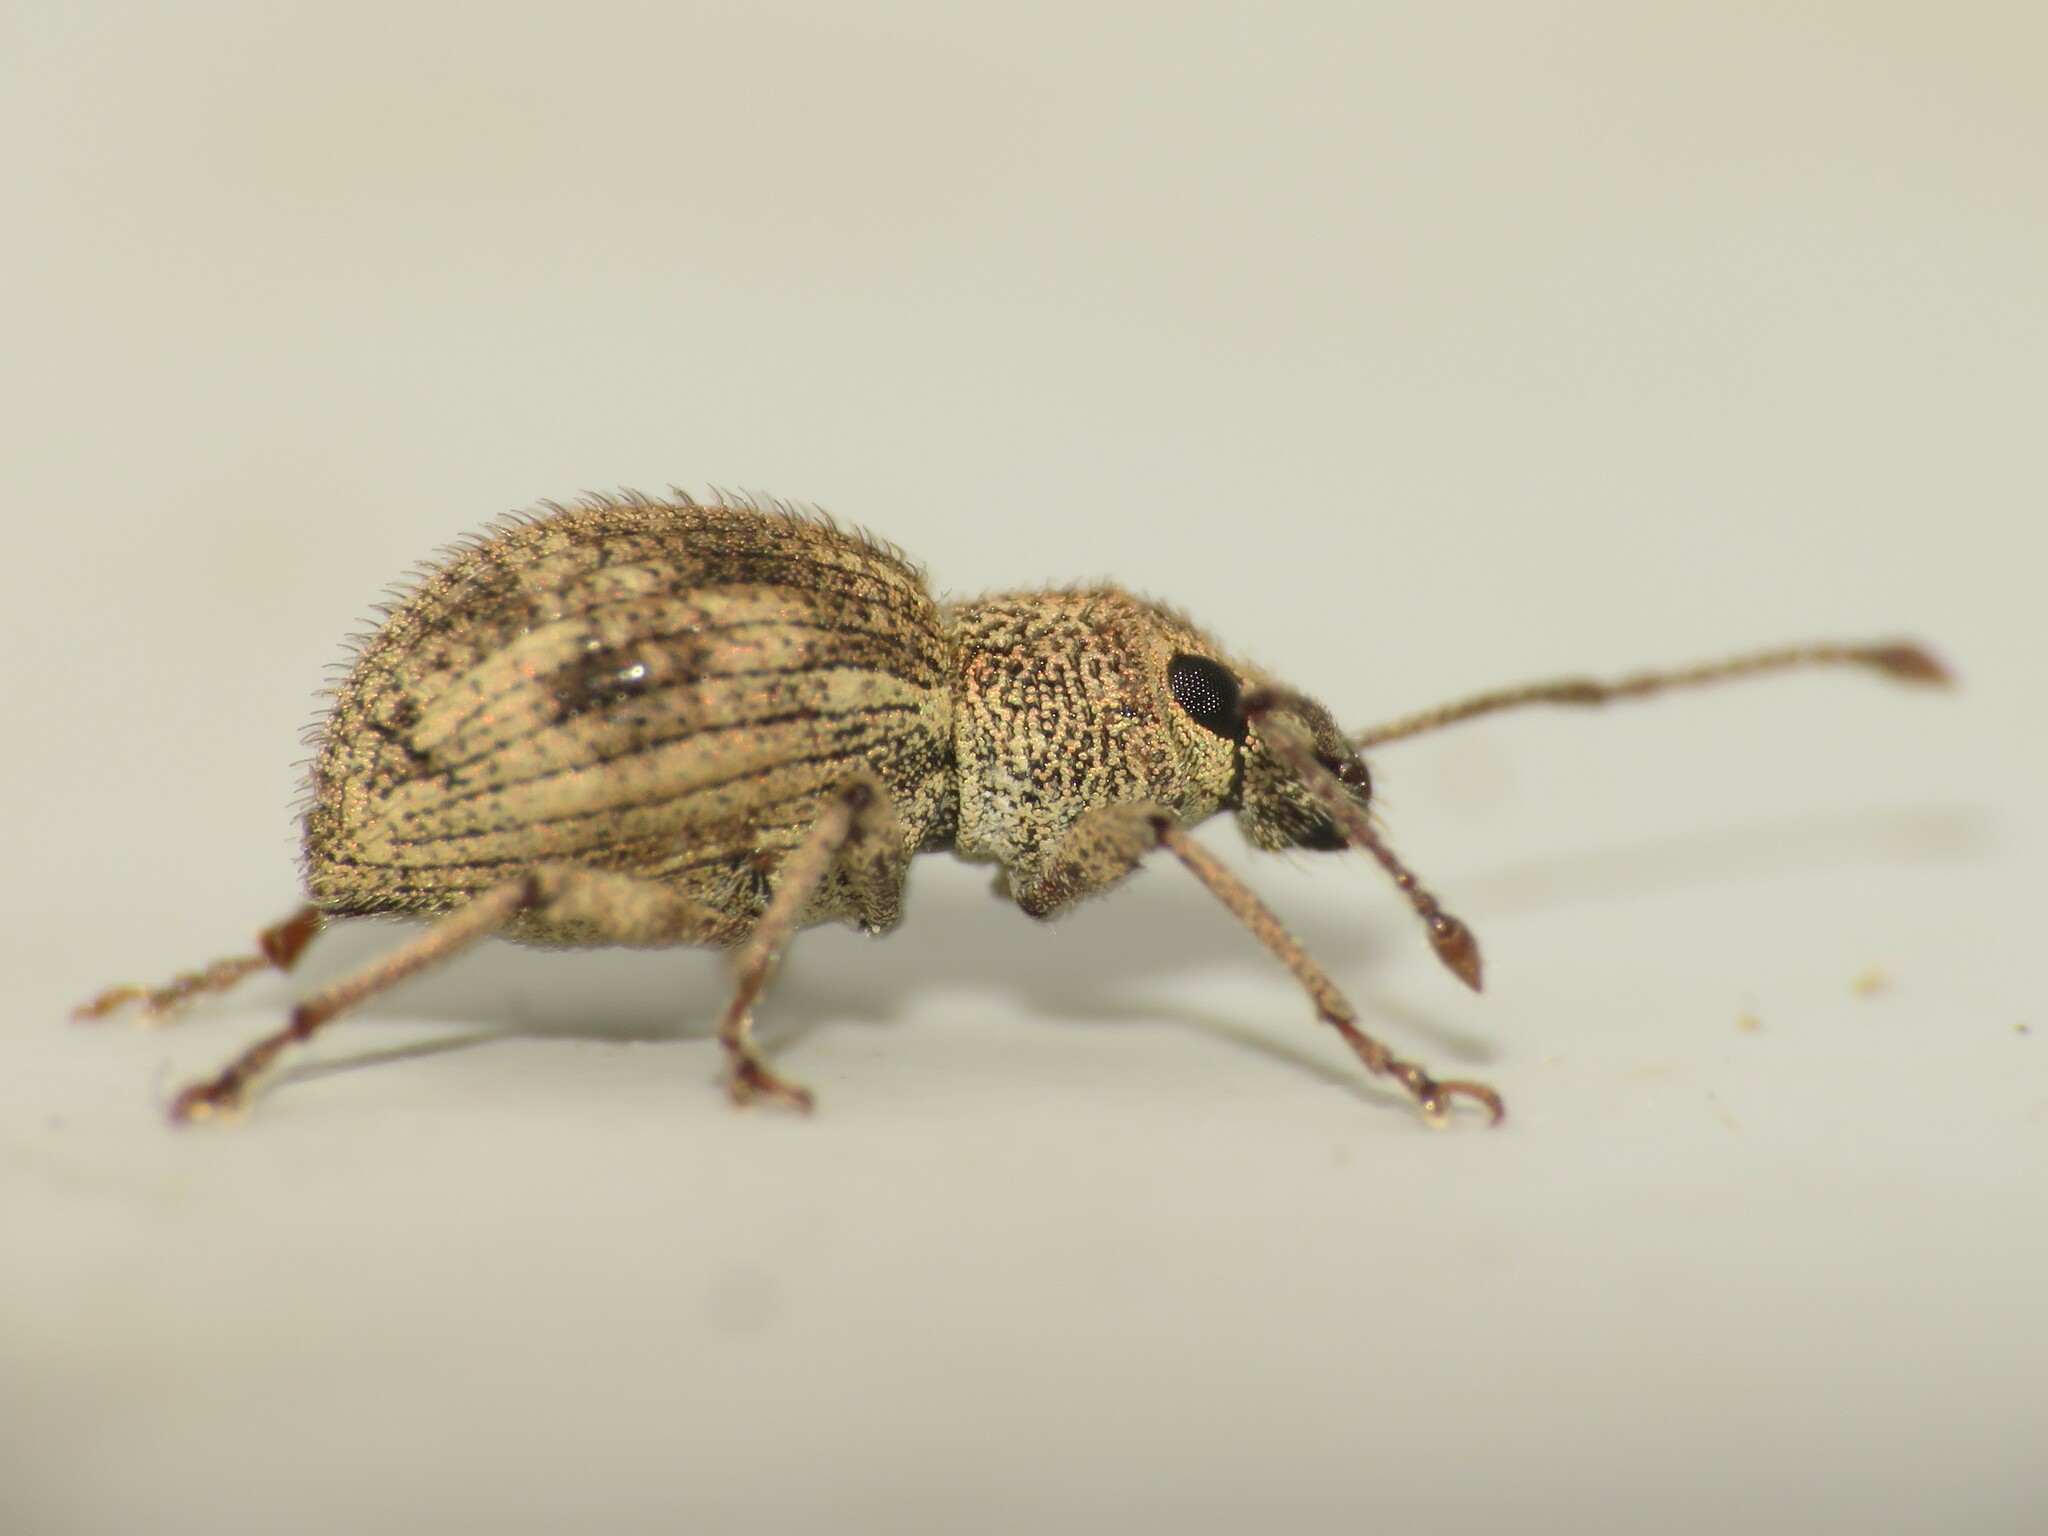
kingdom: Animalia
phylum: Arthropoda
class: Insecta
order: Coleoptera
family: Curculionidae
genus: Calomycterus
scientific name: Calomycterus setarius
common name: Weevil
